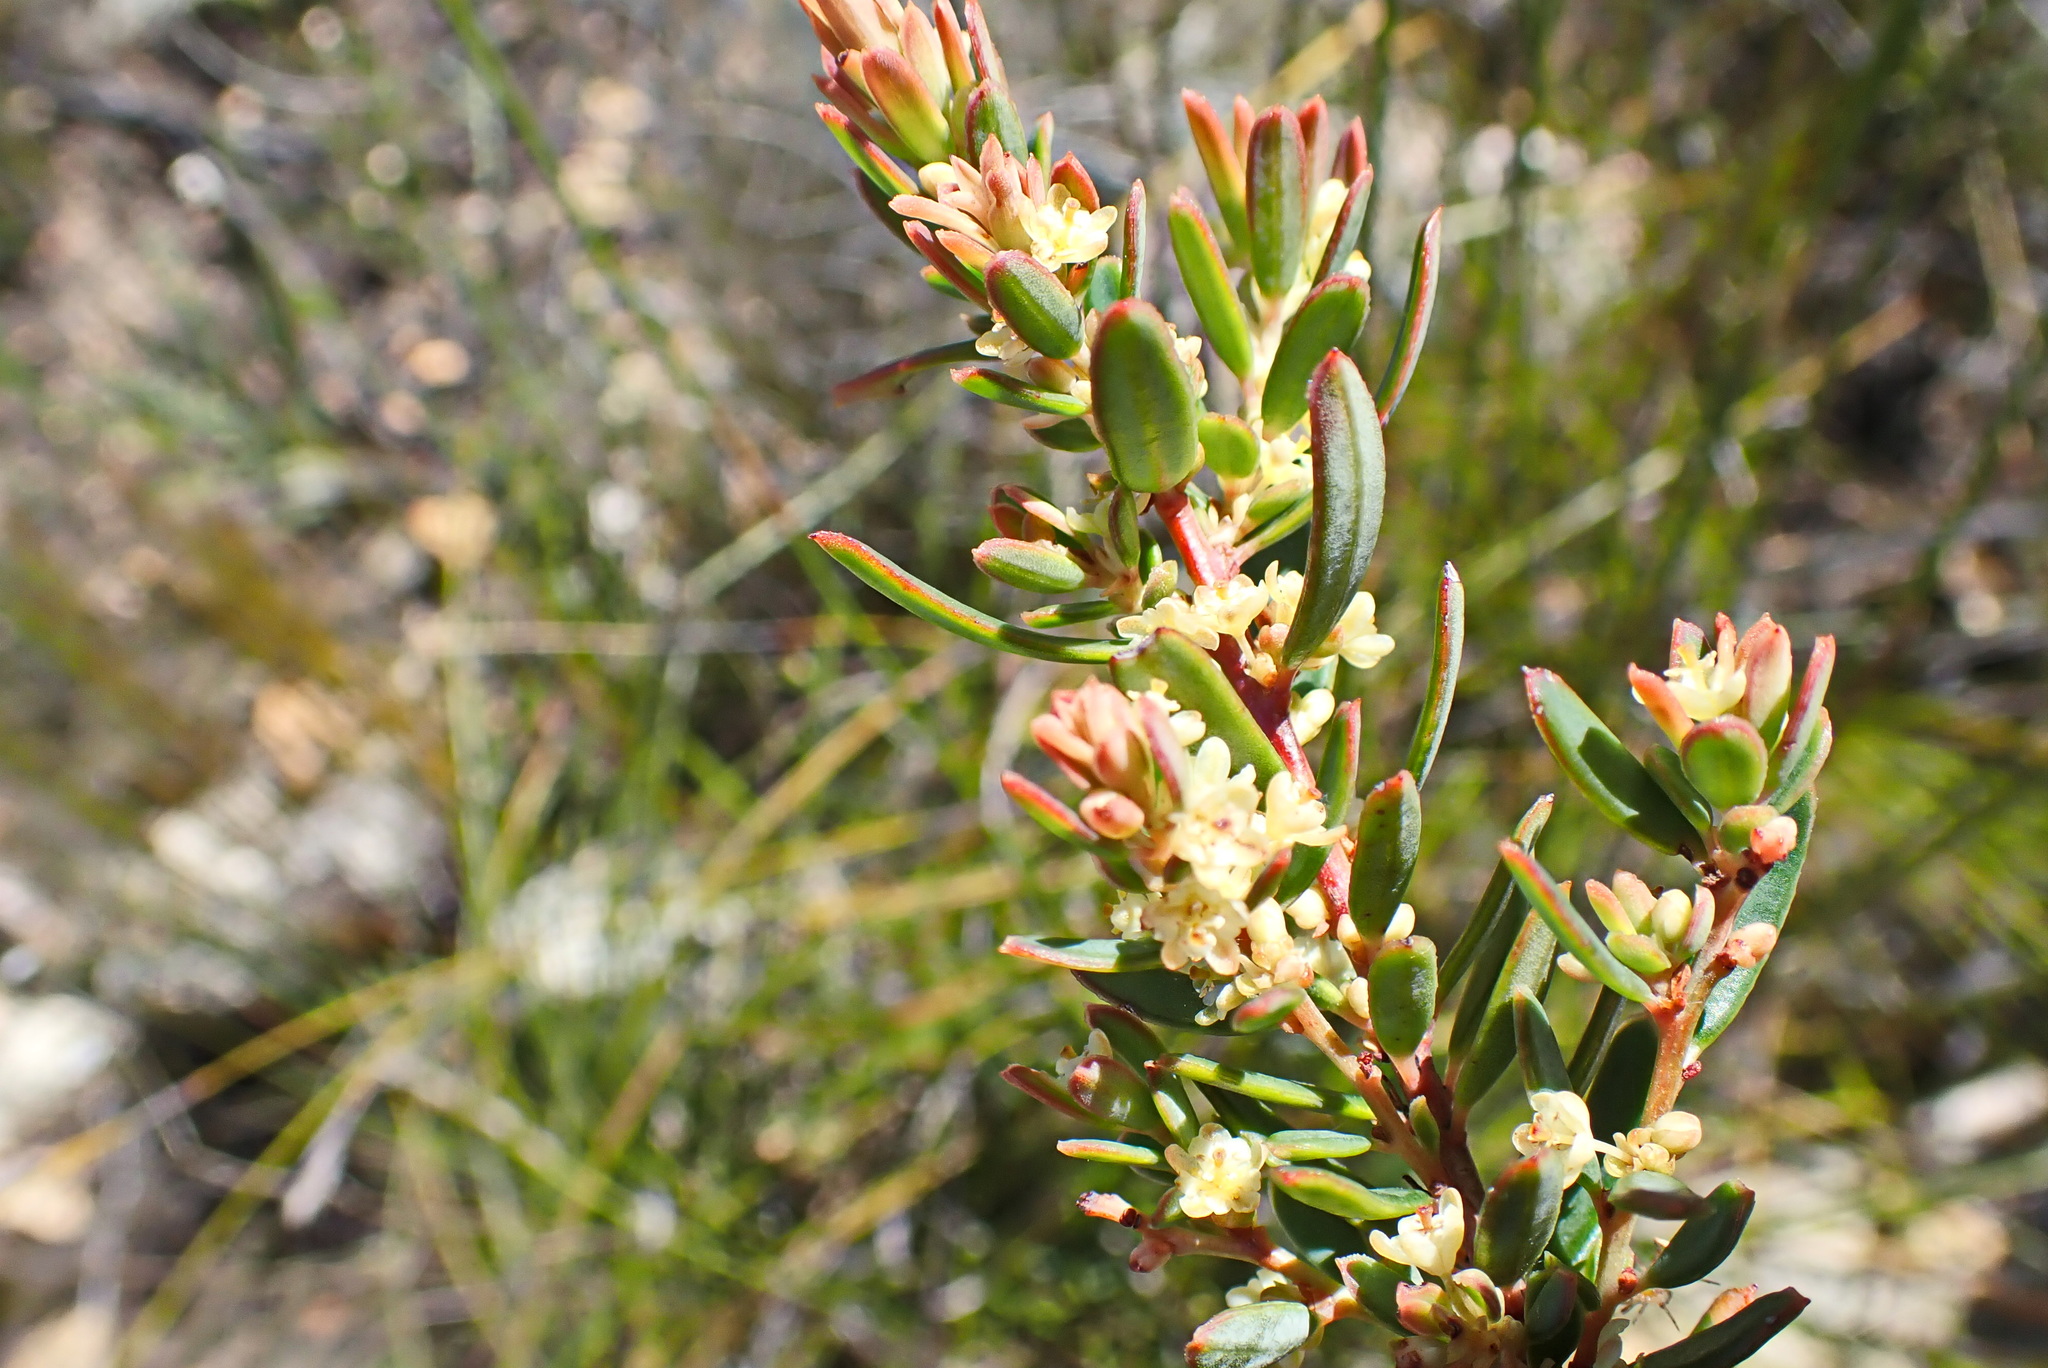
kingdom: Plantae
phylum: Tracheophyta
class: Magnoliopsida
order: Malpighiales
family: Peraceae
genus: Clutia
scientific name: Clutia laxa
